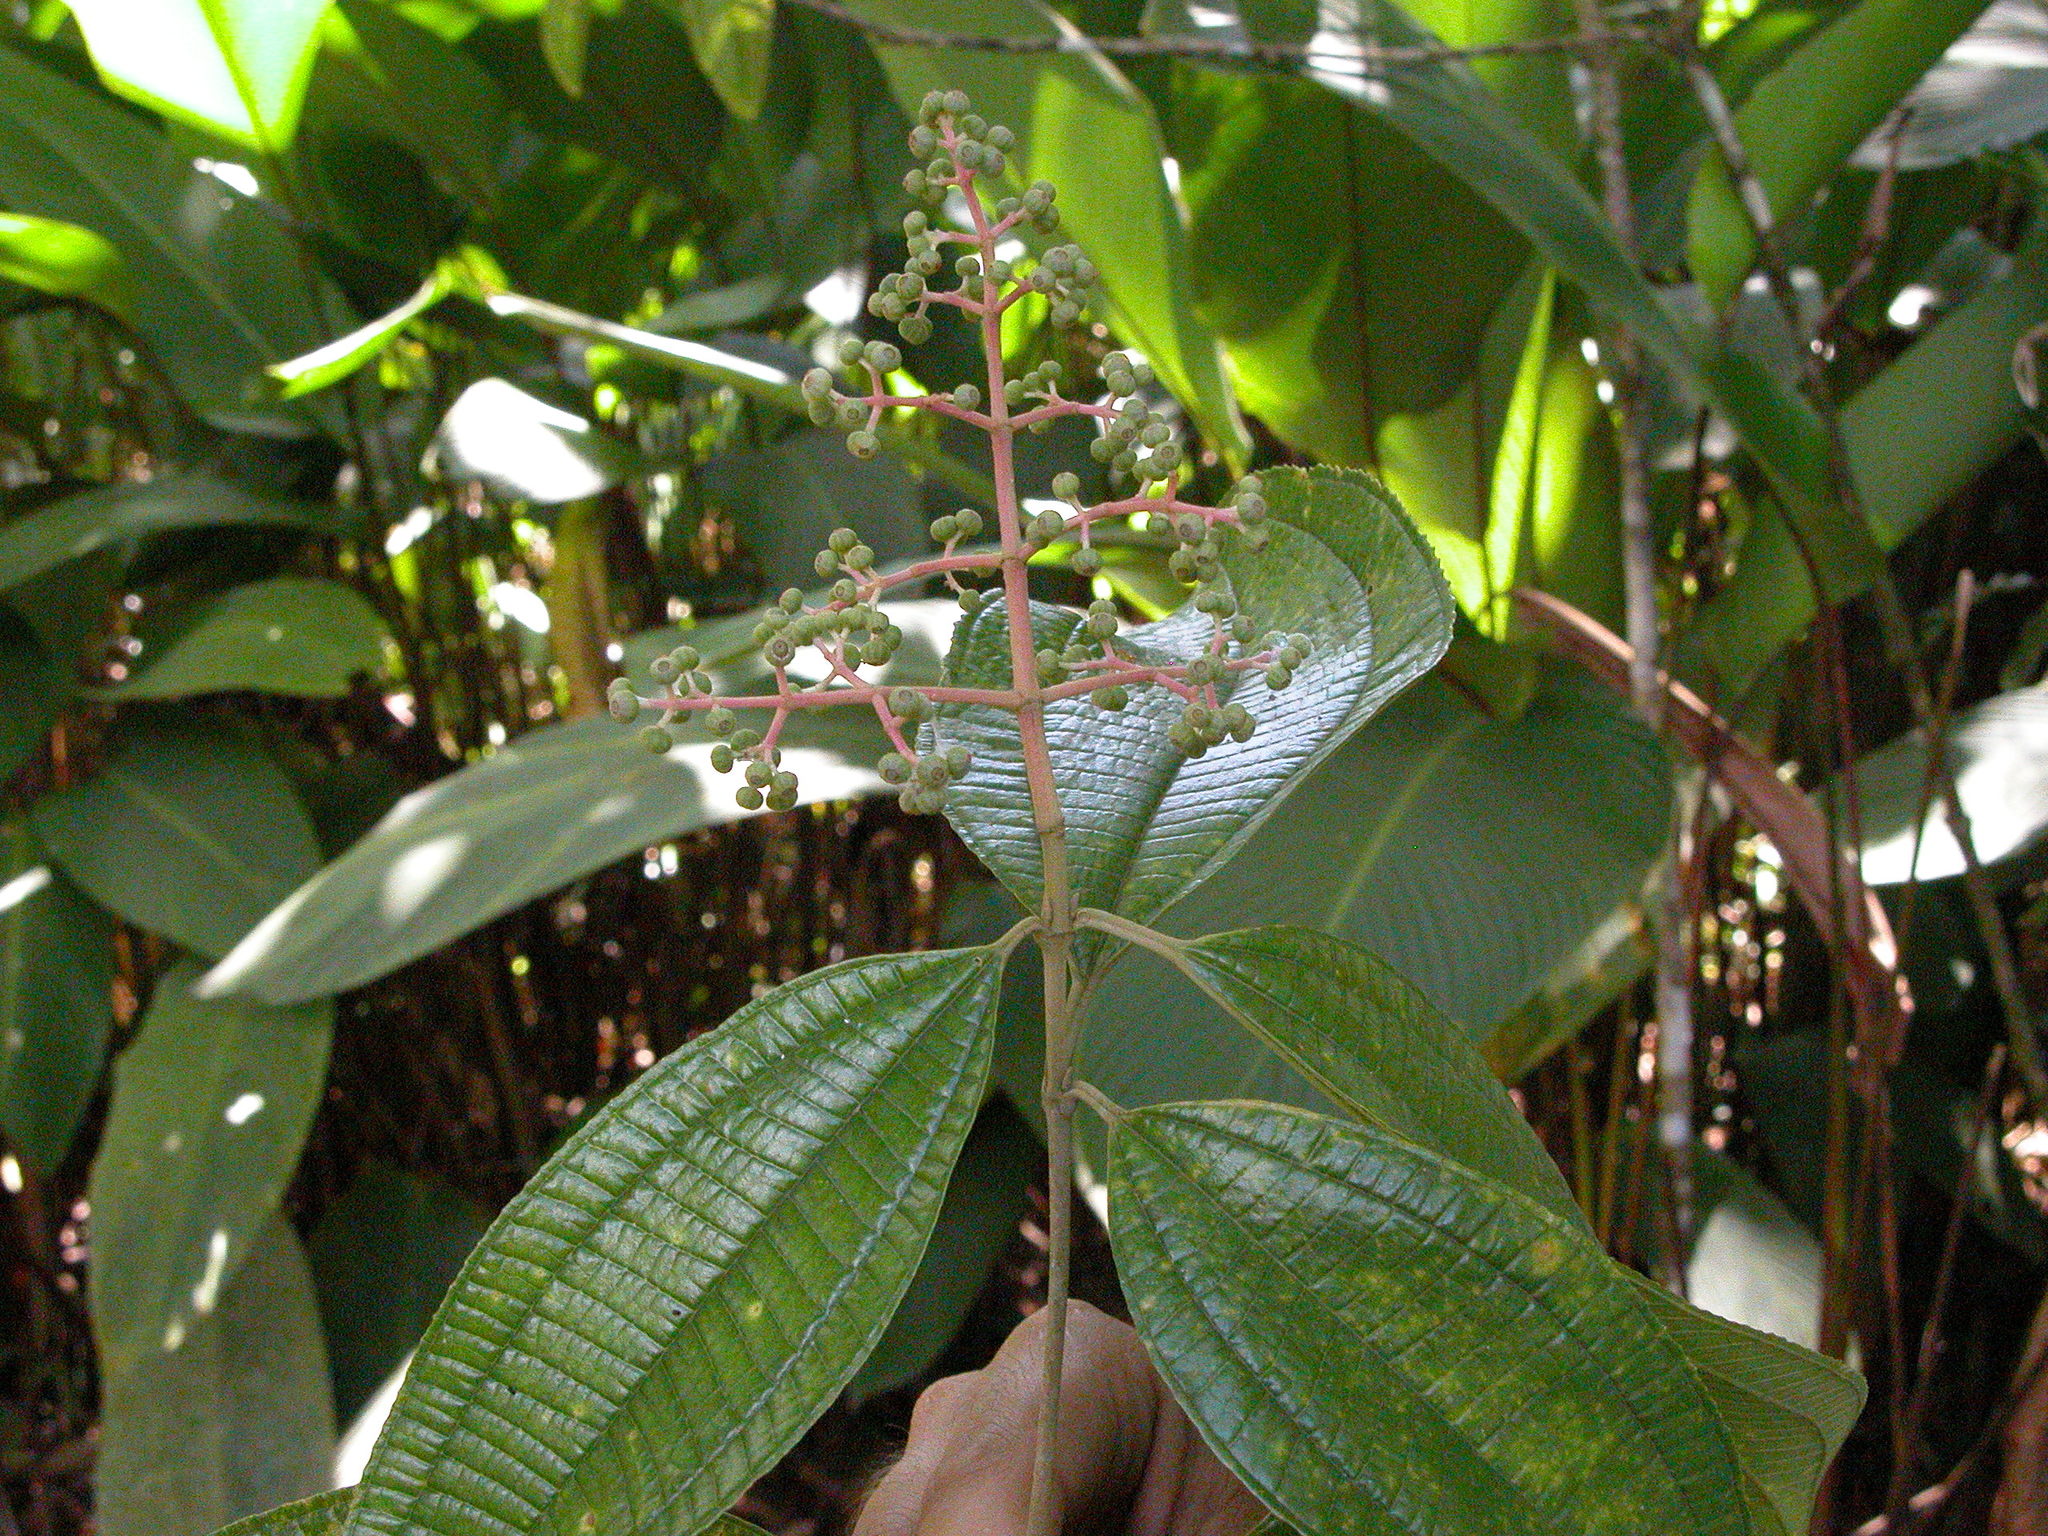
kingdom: Plantae
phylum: Tracheophyta
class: Magnoliopsida
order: Myrtales
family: Melastomataceae
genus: Miconia
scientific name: Miconia affinis
